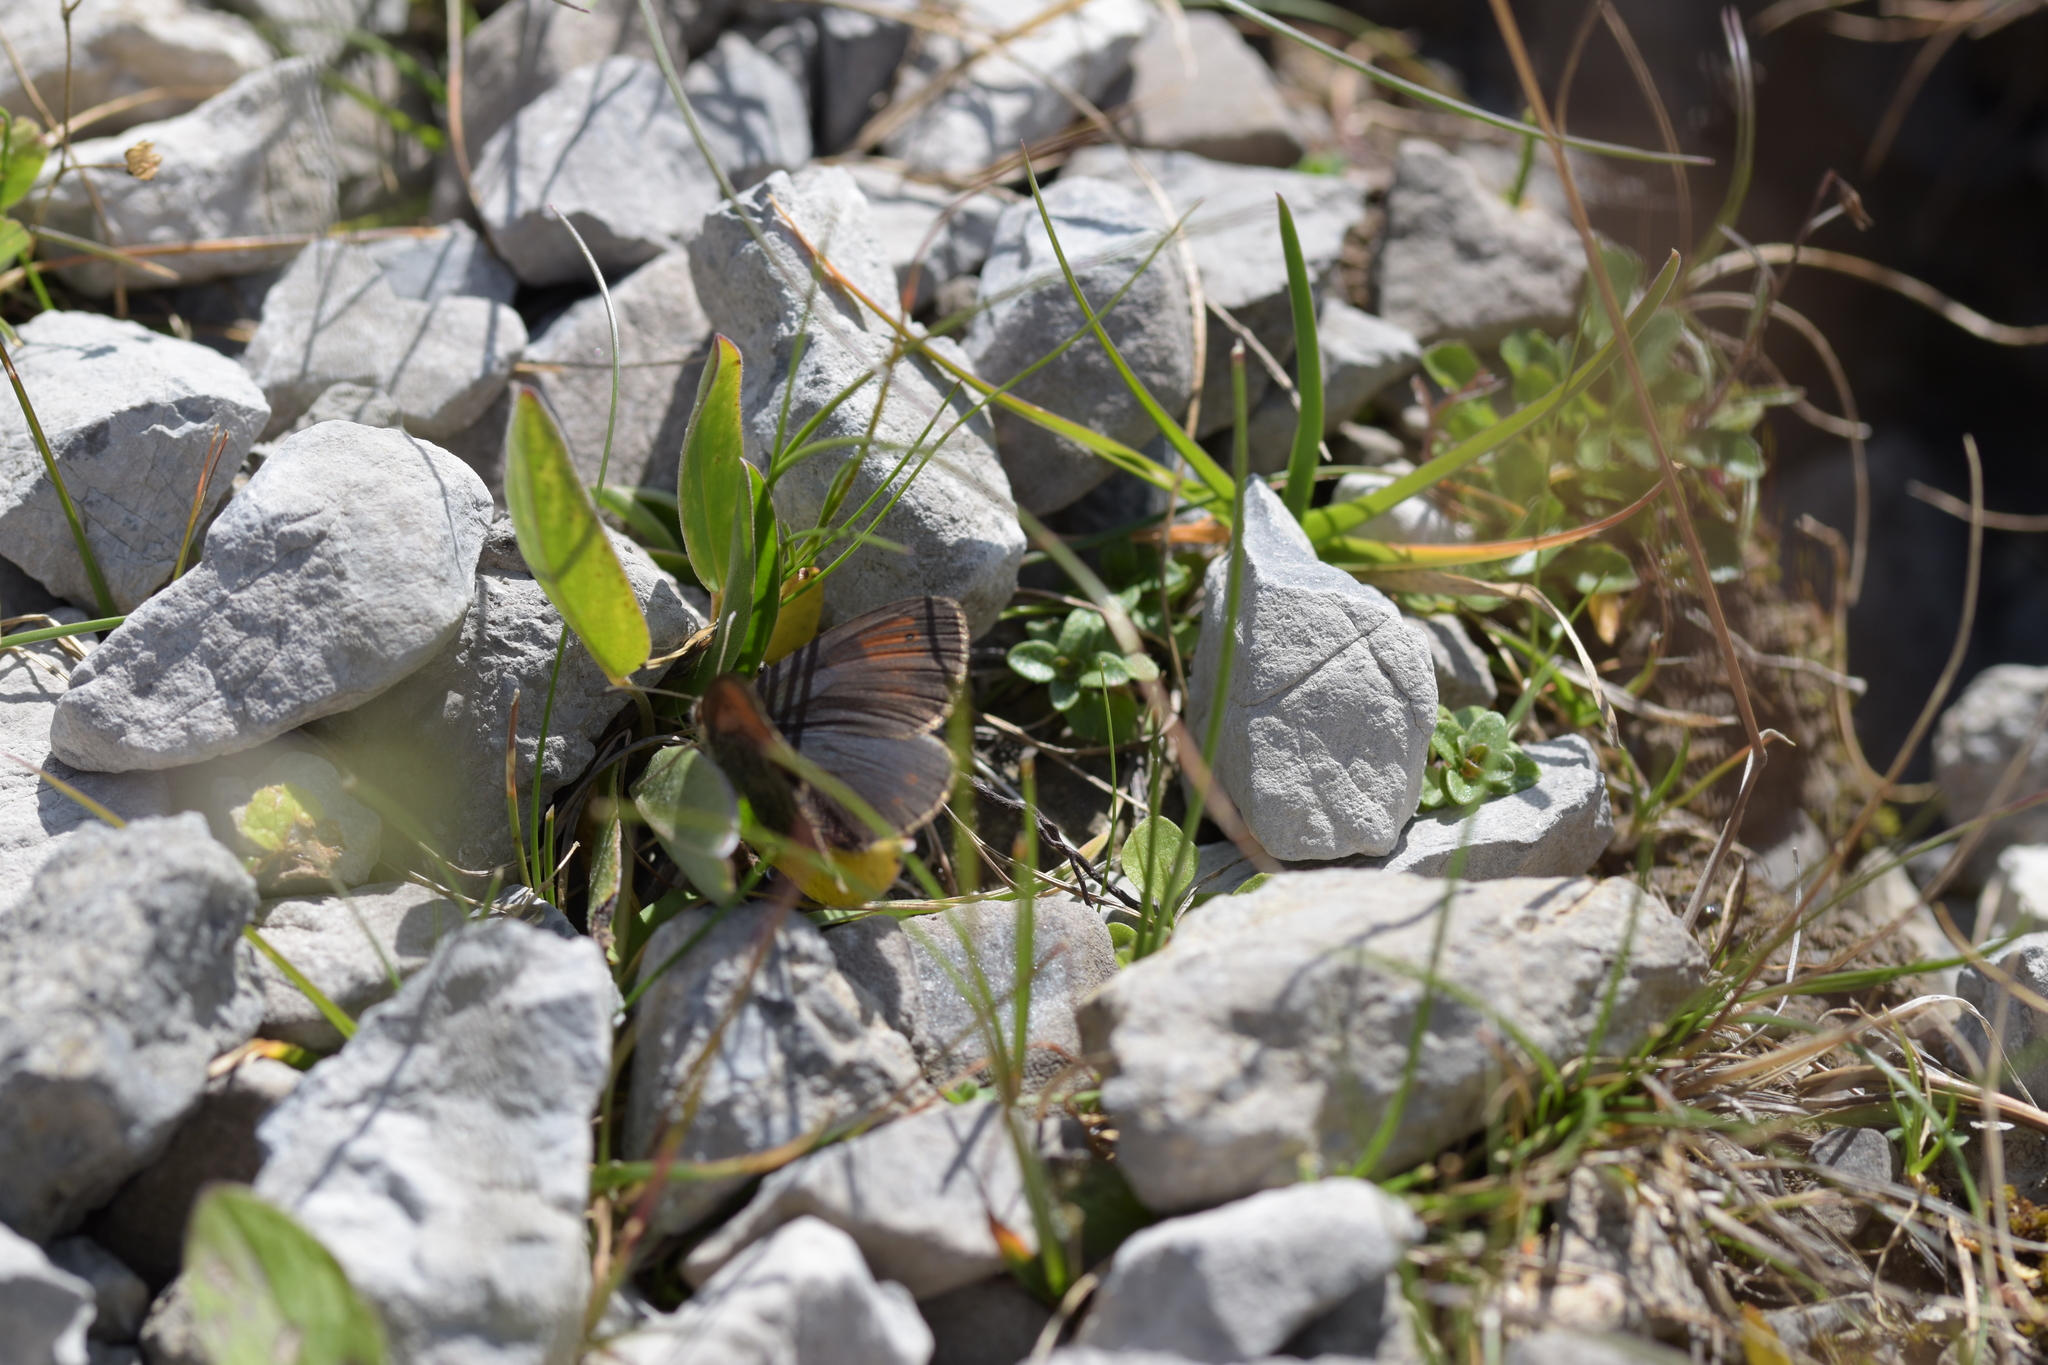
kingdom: Animalia
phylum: Arthropoda
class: Insecta
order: Lepidoptera
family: Nymphalidae
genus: Erebia
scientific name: Erebia tyndarus
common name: Swiss brassy ringlet
